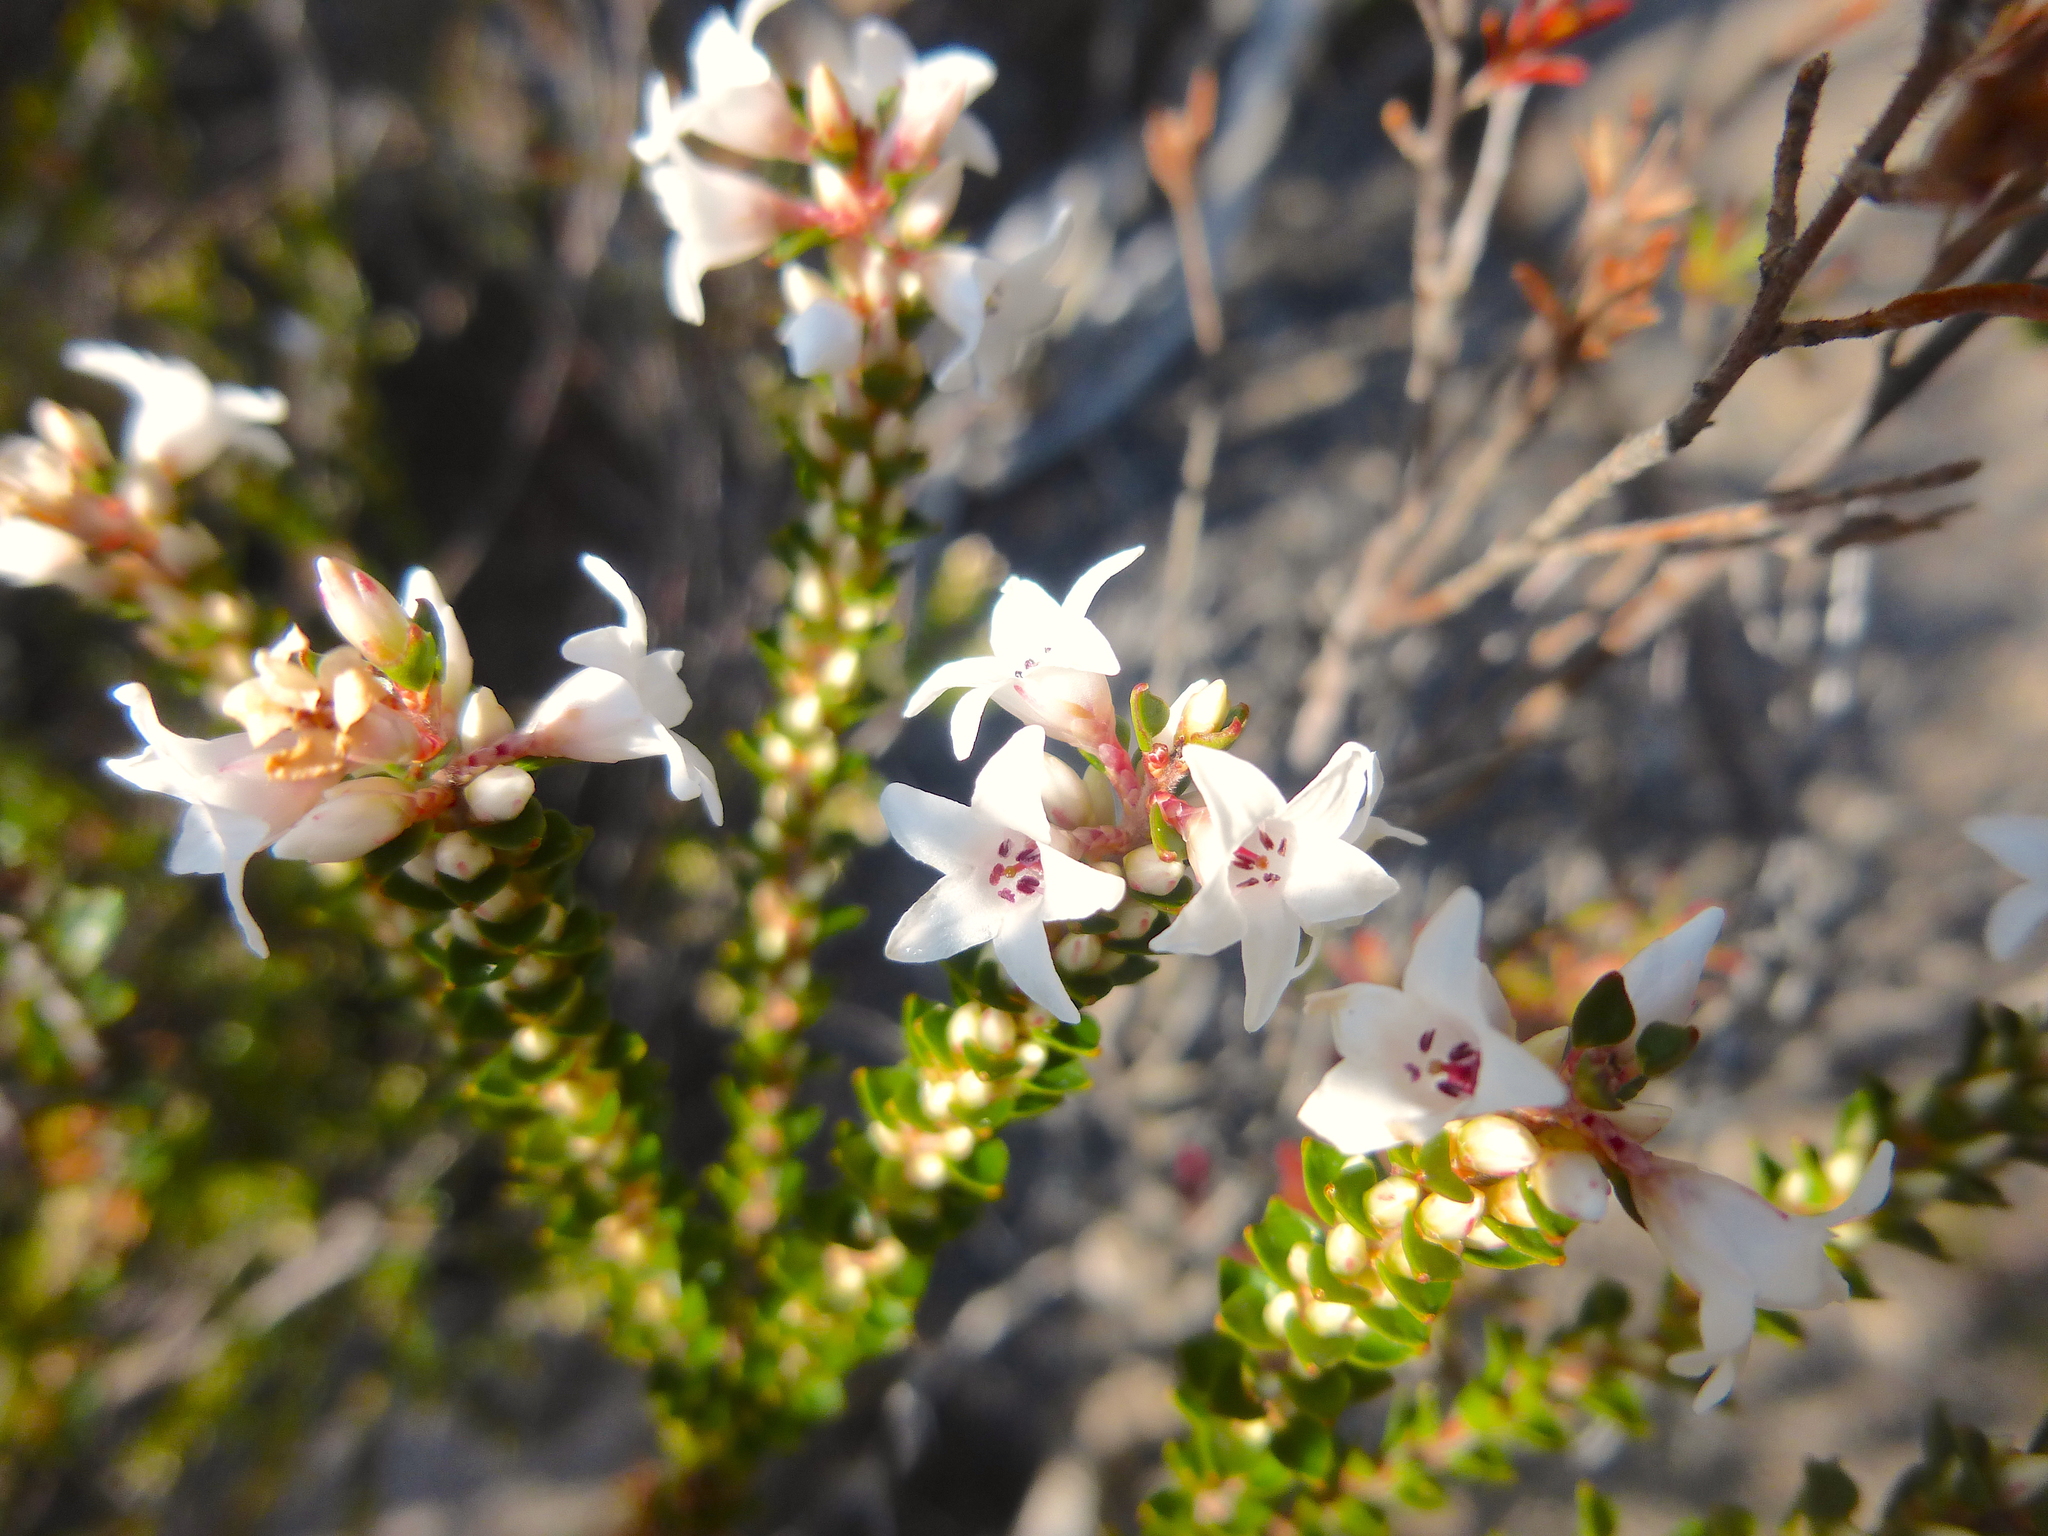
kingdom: Plantae
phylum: Tracheophyta
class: Magnoliopsida
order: Ericales
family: Ericaceae
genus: Epacris
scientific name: Epacris microphylla
